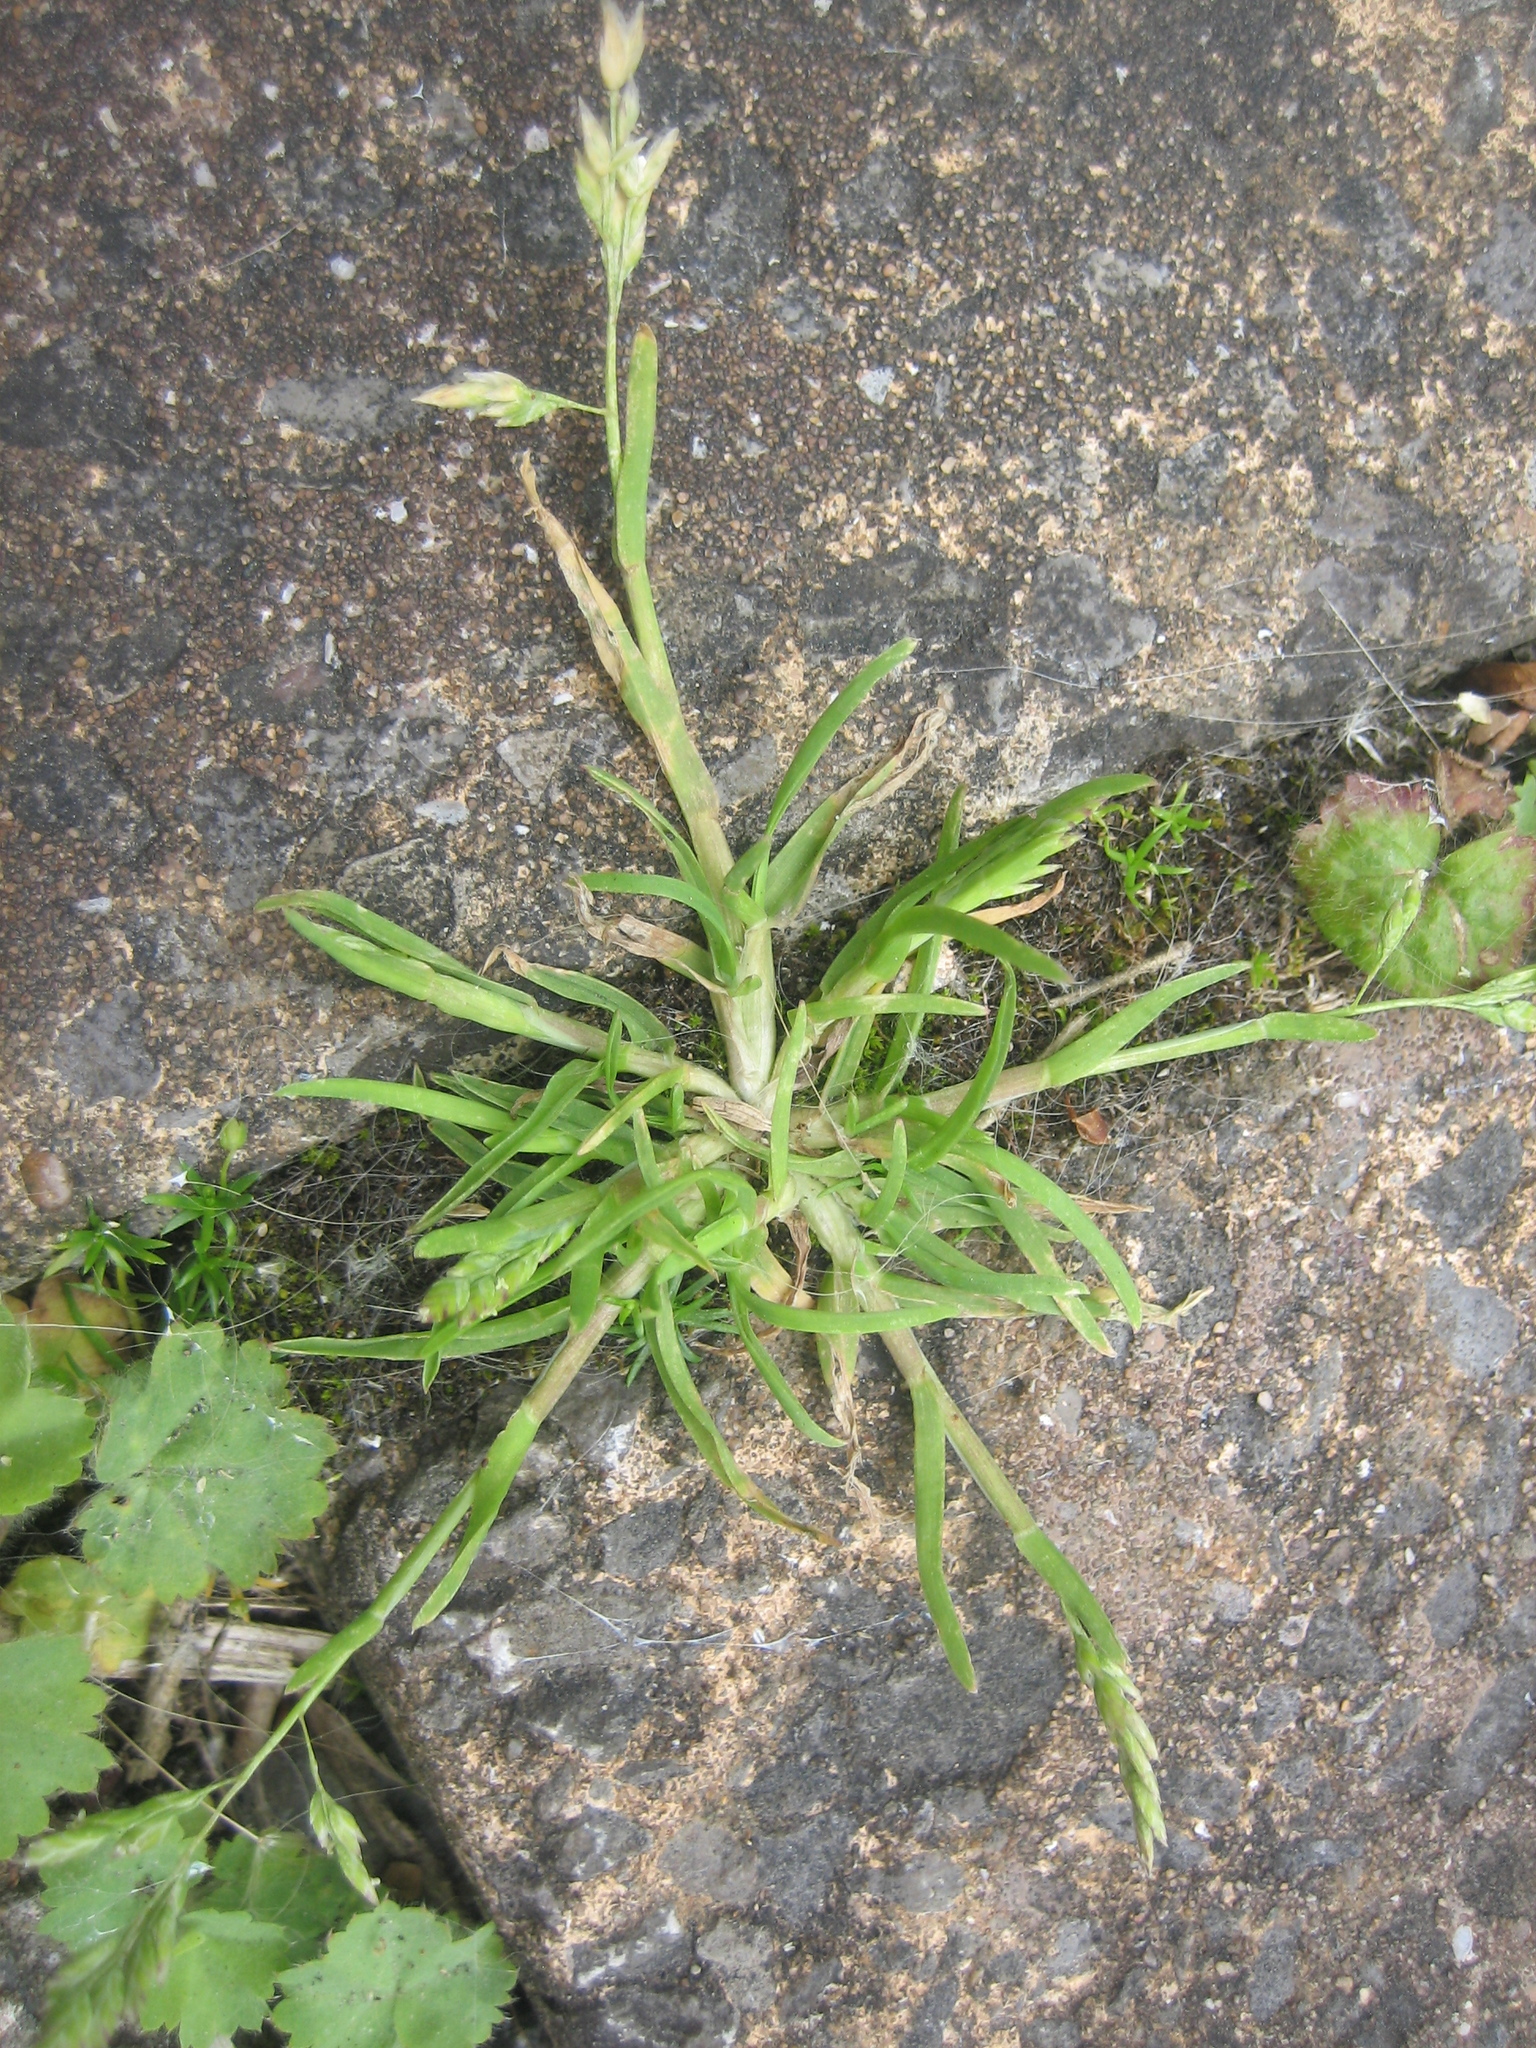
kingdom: Plantae
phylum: Tracheophyta
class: Liliopsida
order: Poales
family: Poaceae
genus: Poa
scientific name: Poa annua
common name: Annual bluegrass
